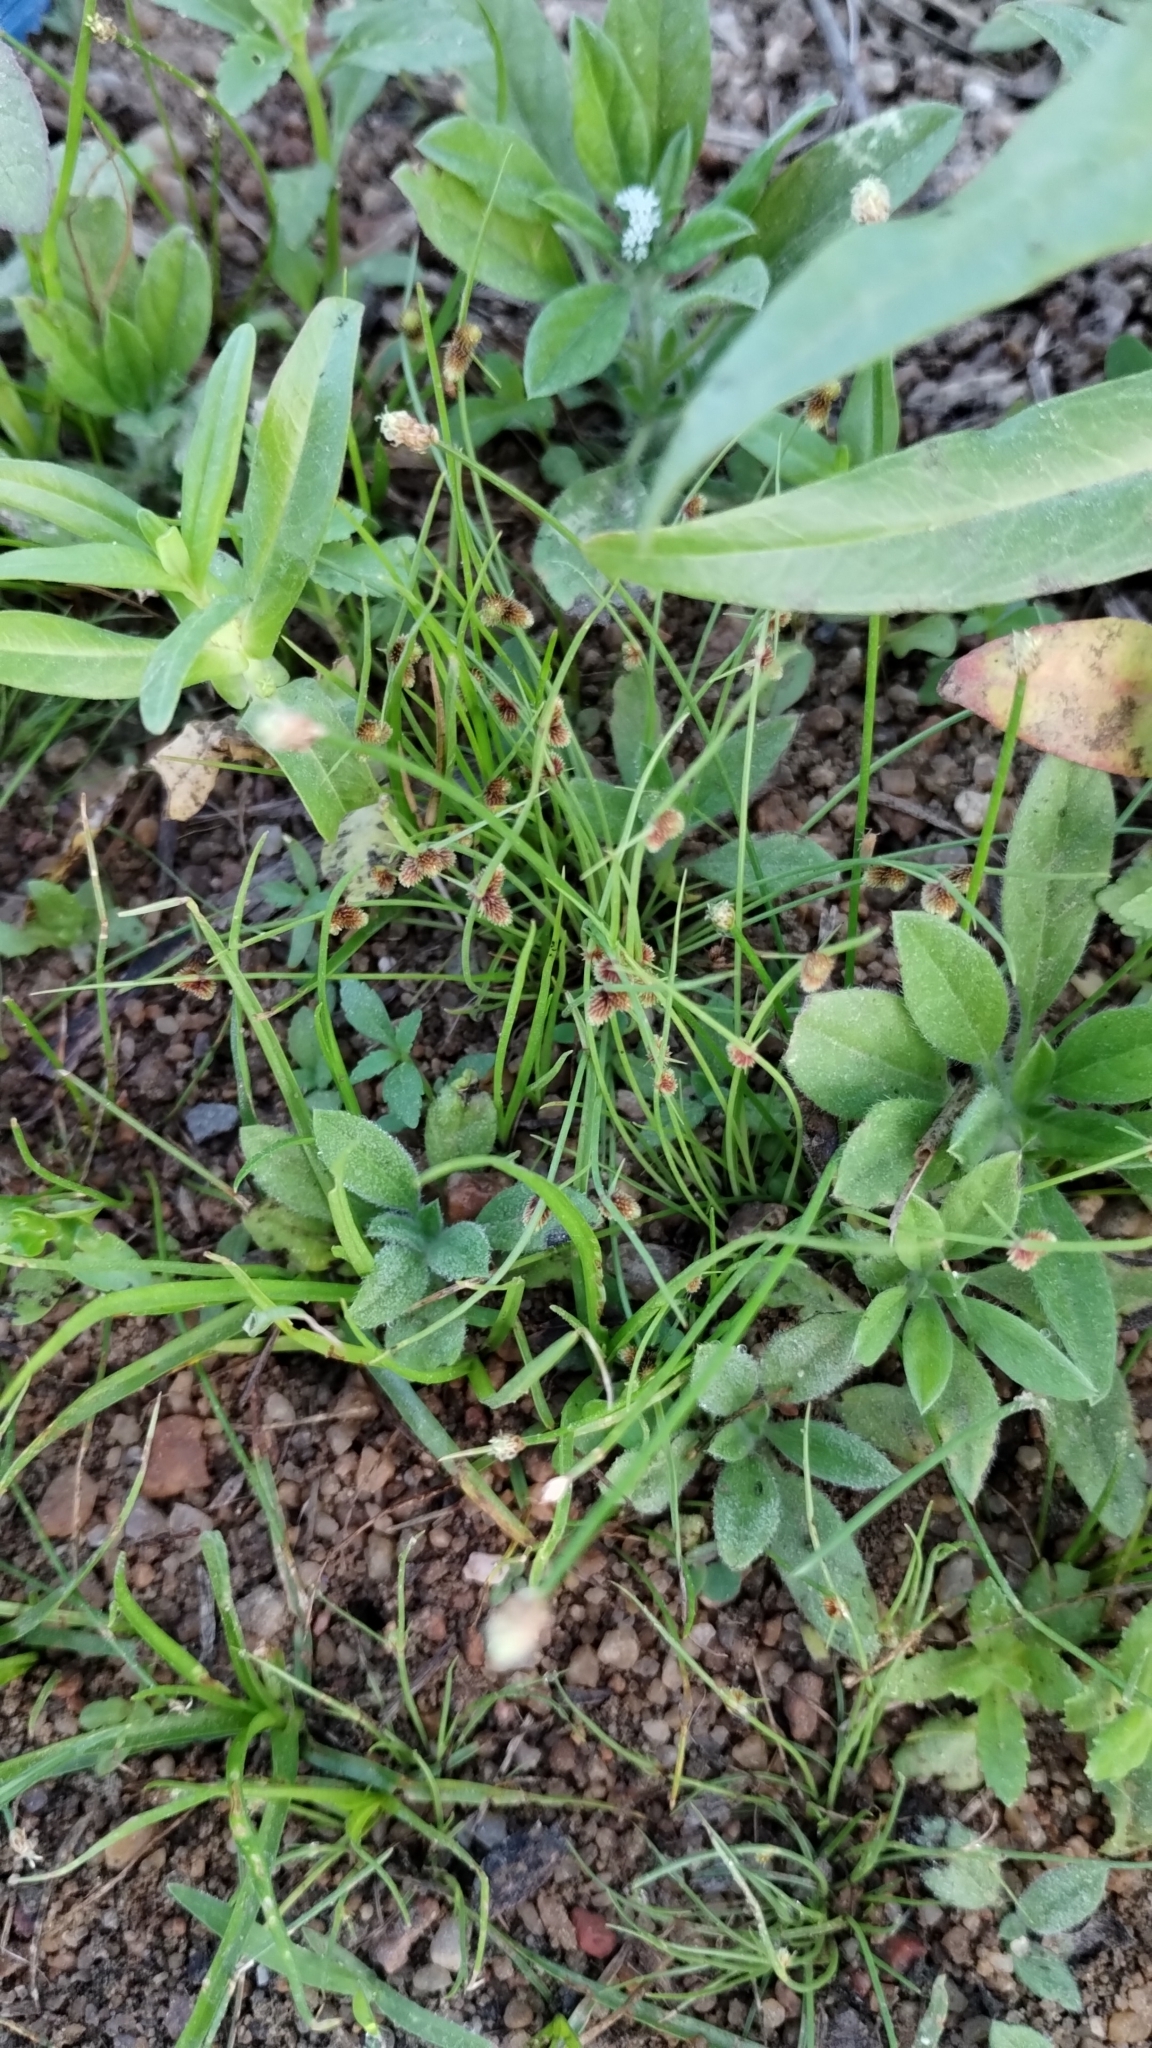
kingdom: Plantae
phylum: Tracheophyta
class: Liliopsida
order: Poales
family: Cyperaceae
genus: Eleocharis
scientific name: Eleocharis geniculata
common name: Canada spikesedge
